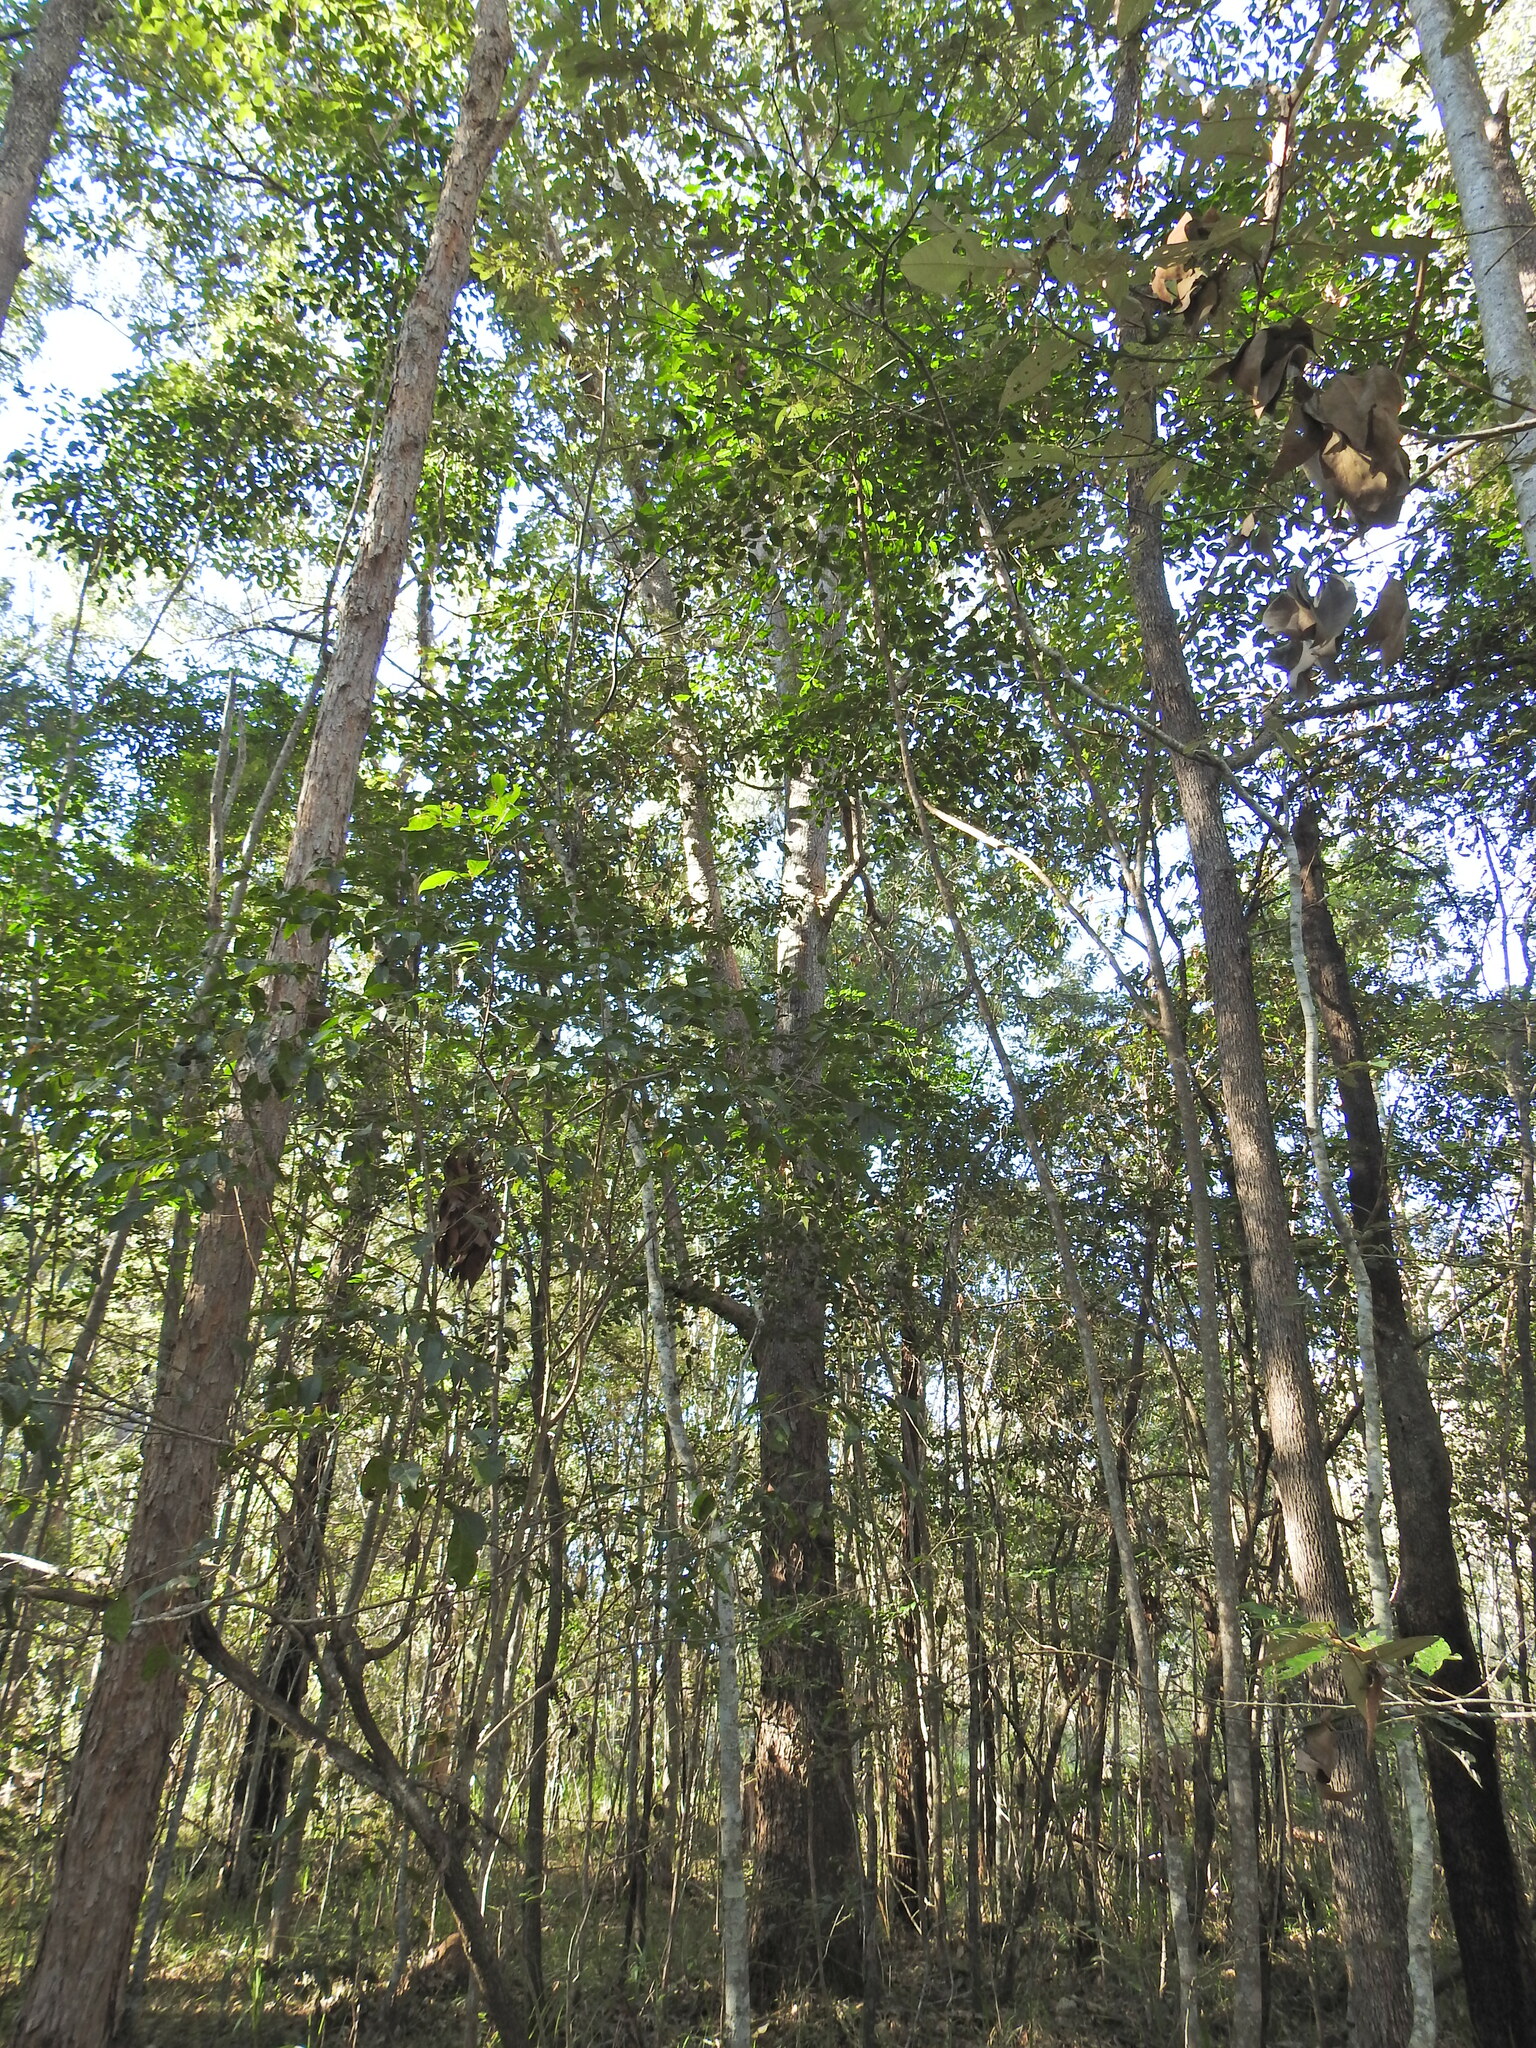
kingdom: Plantae
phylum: Tracheophyta
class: Magnoliopsida
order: Myrtales
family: Myrtaceae
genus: Lophostemon
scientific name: Lophostemon confertus
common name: Brisbane box
